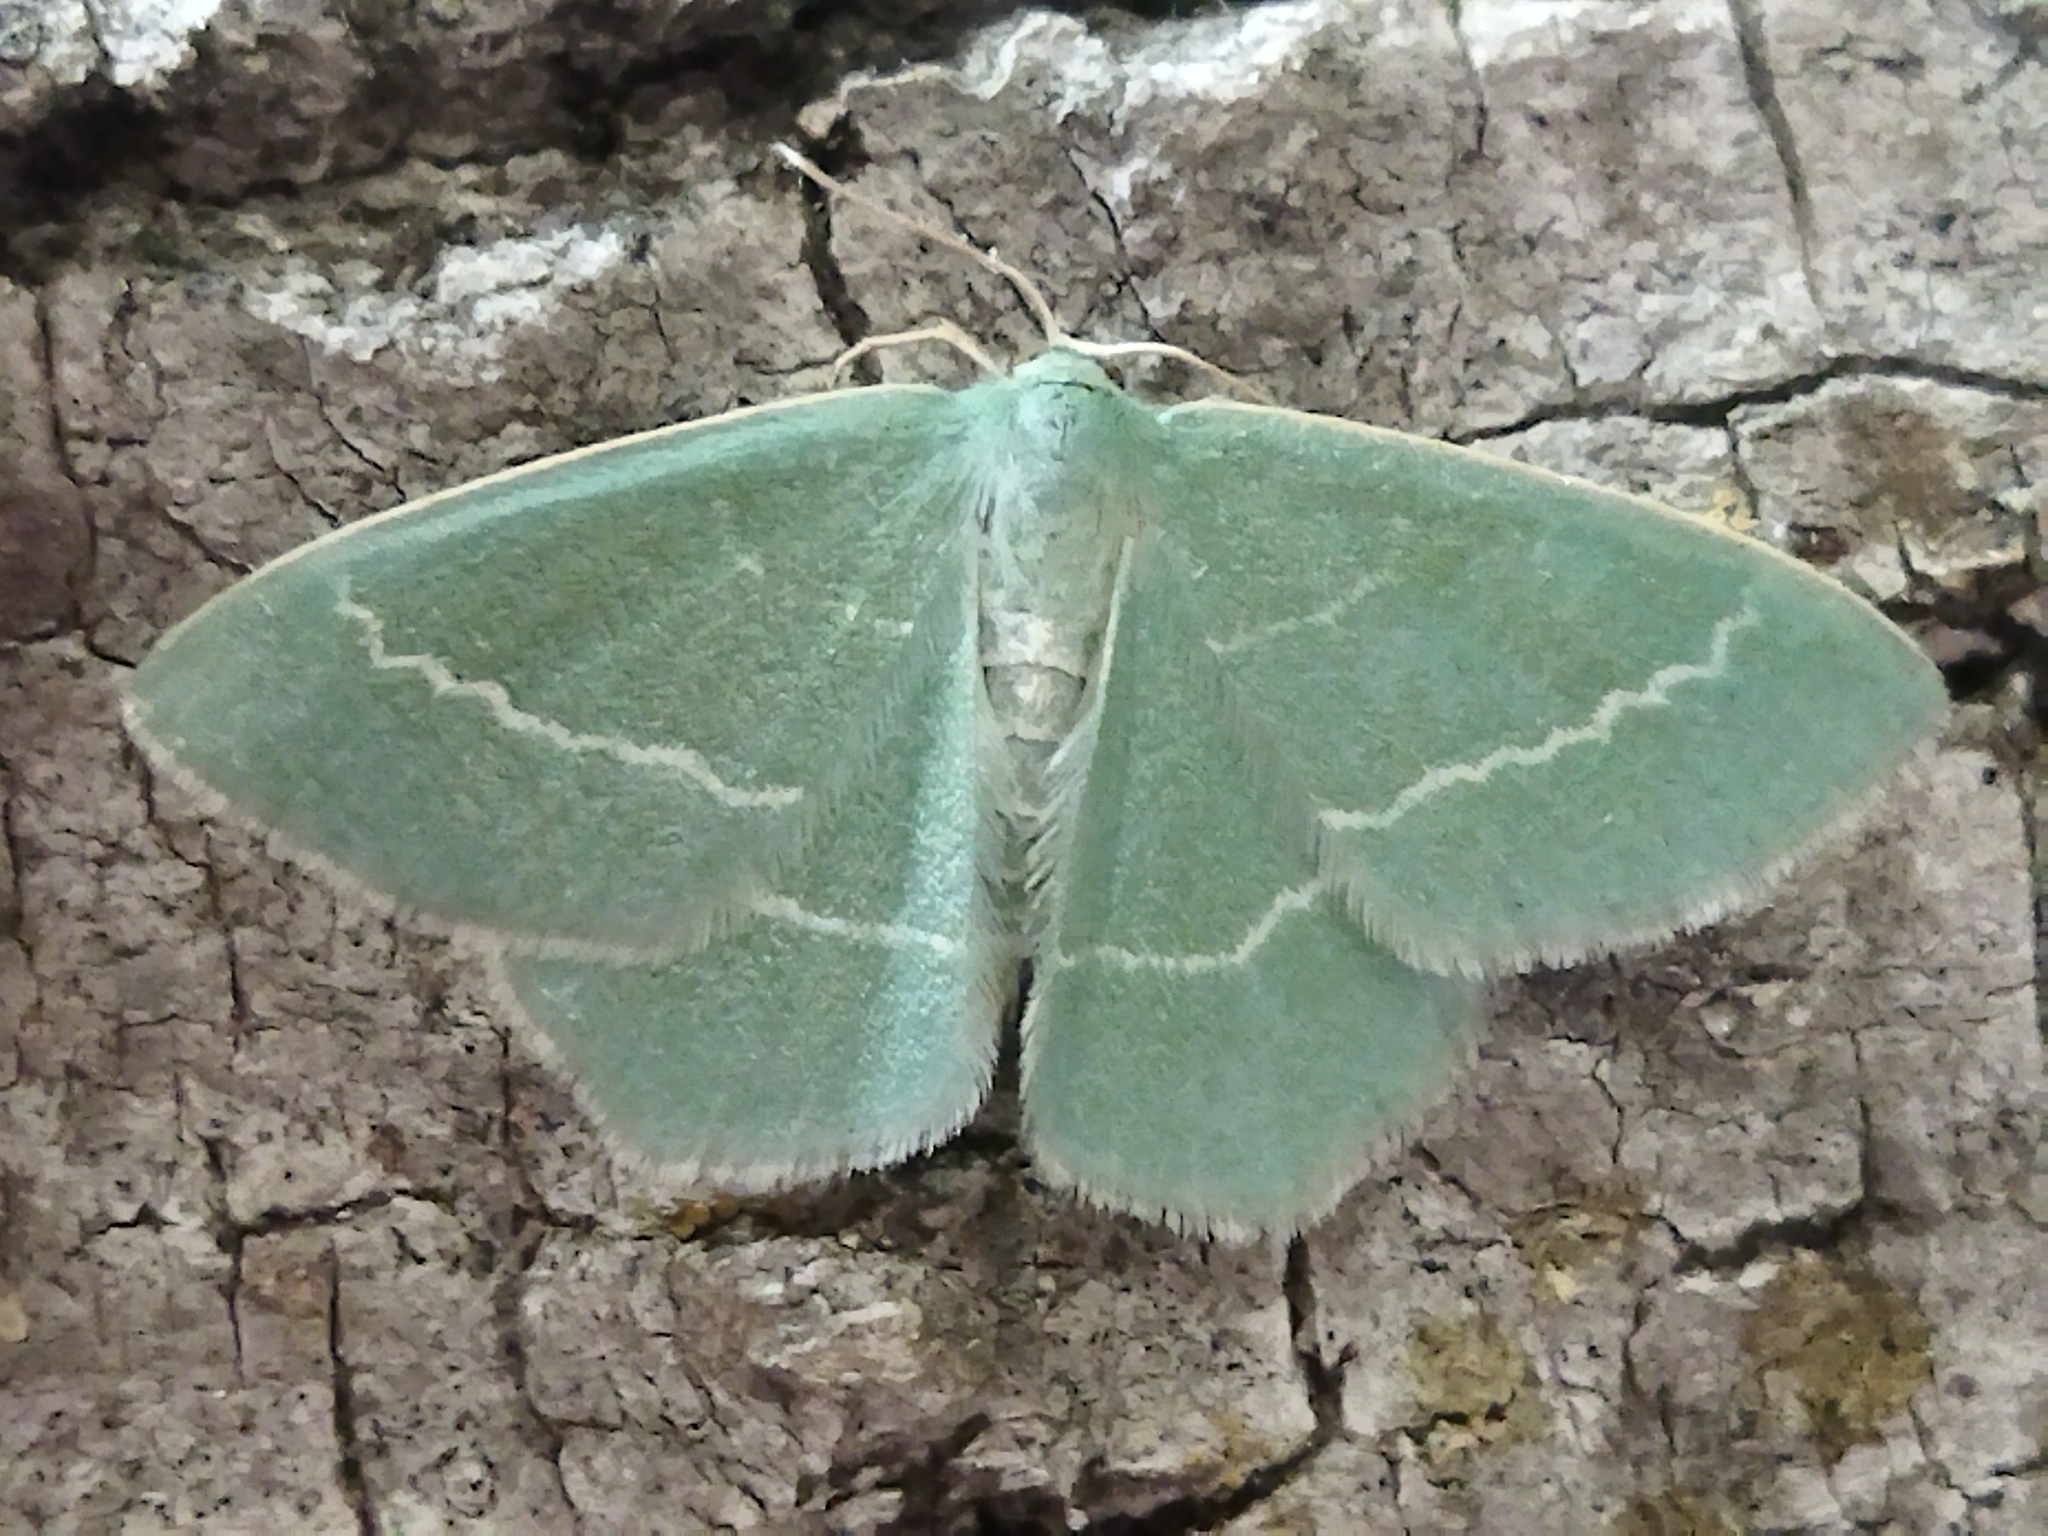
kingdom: Animalia
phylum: Arthropoda
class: Insecta
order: Lepidoptera
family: Geometridae
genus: Chlorissa
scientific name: Chlorissa viridata
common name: Small grass emerald
